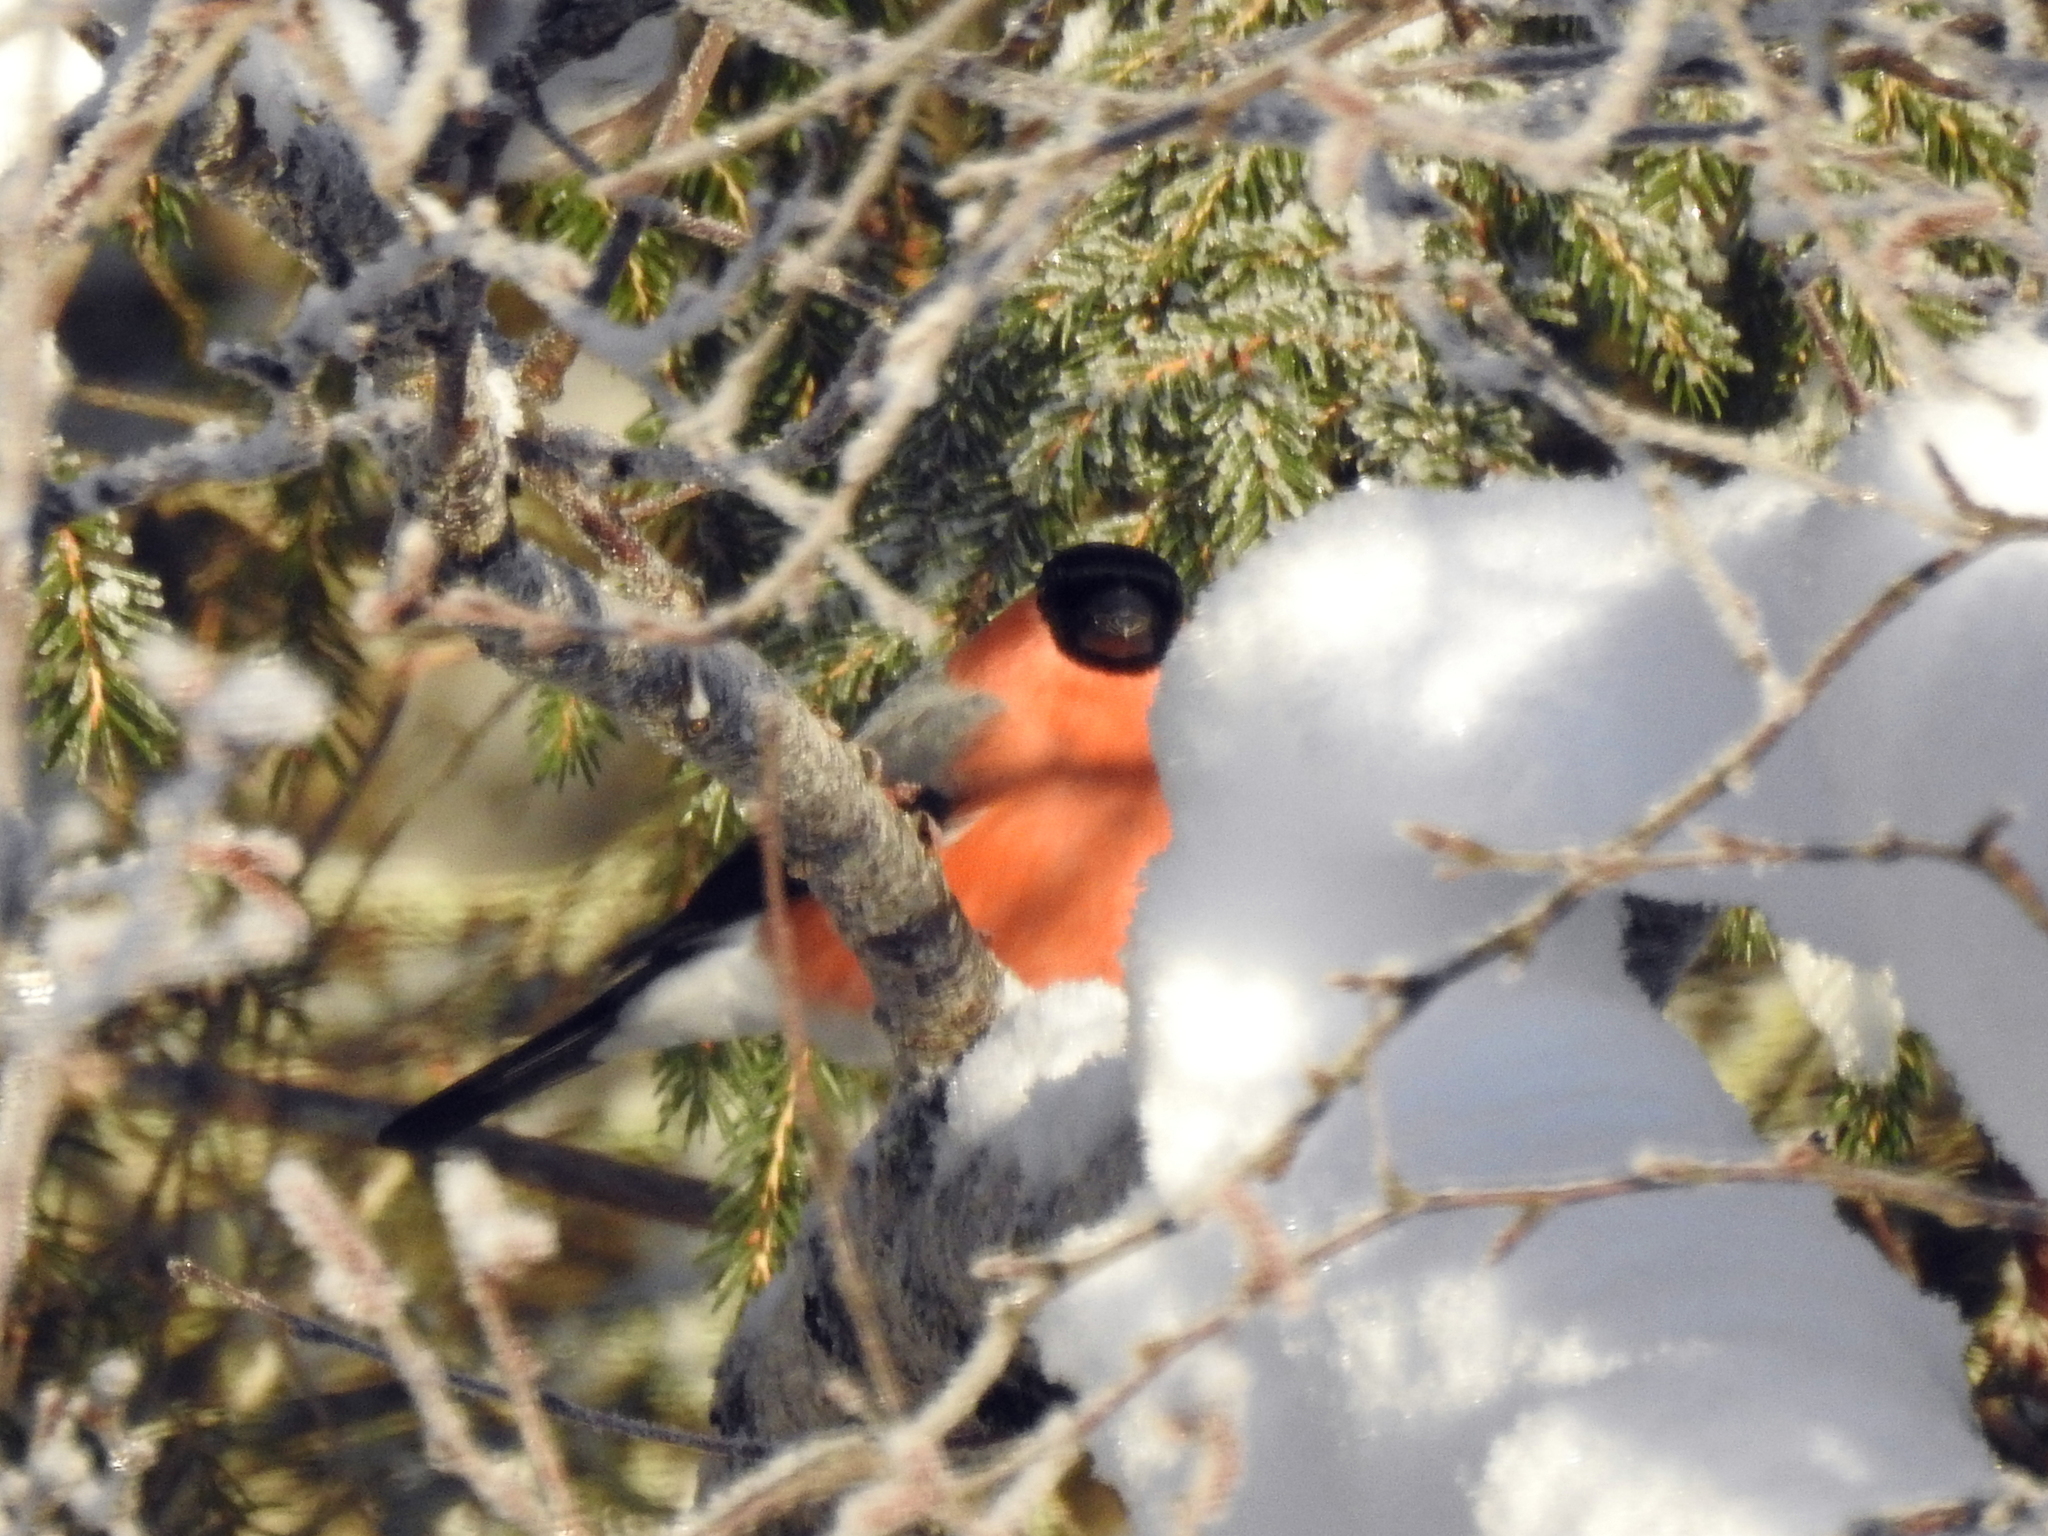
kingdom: Animalia
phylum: Chordata
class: Aves
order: Passeriformes
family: Fringillidae
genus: Pyrrhula
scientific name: Pyrrhula pyrrhula
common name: Eurasian bullfinch
